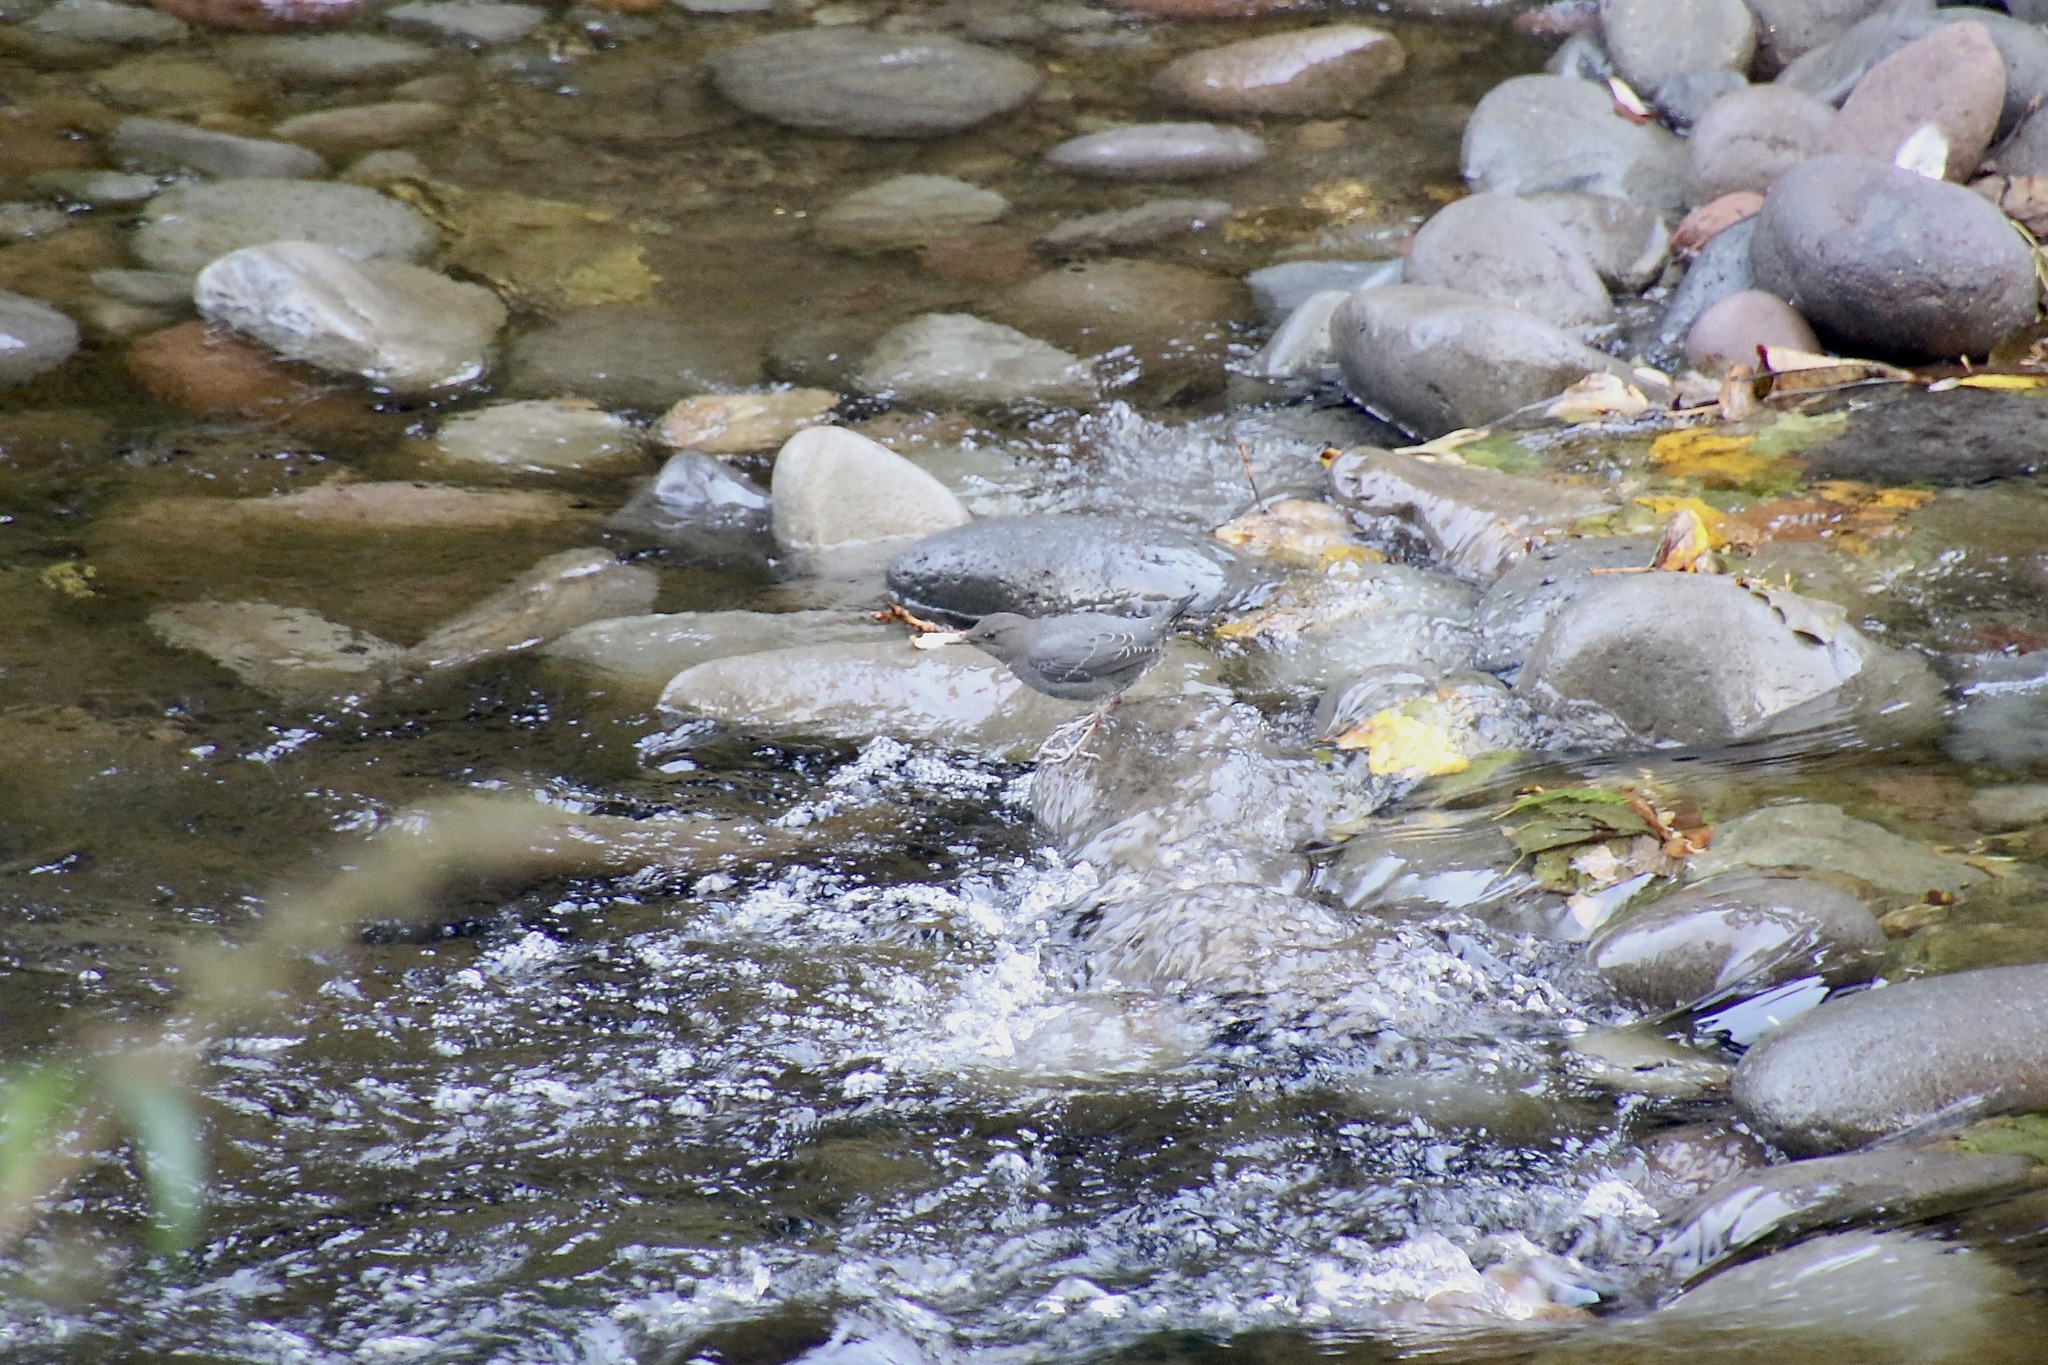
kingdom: Animalia
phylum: Chordata
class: Aves
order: Passeriformes
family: Cinclidae
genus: Cinclus
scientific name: Cinclus mexicanus
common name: American dipper
